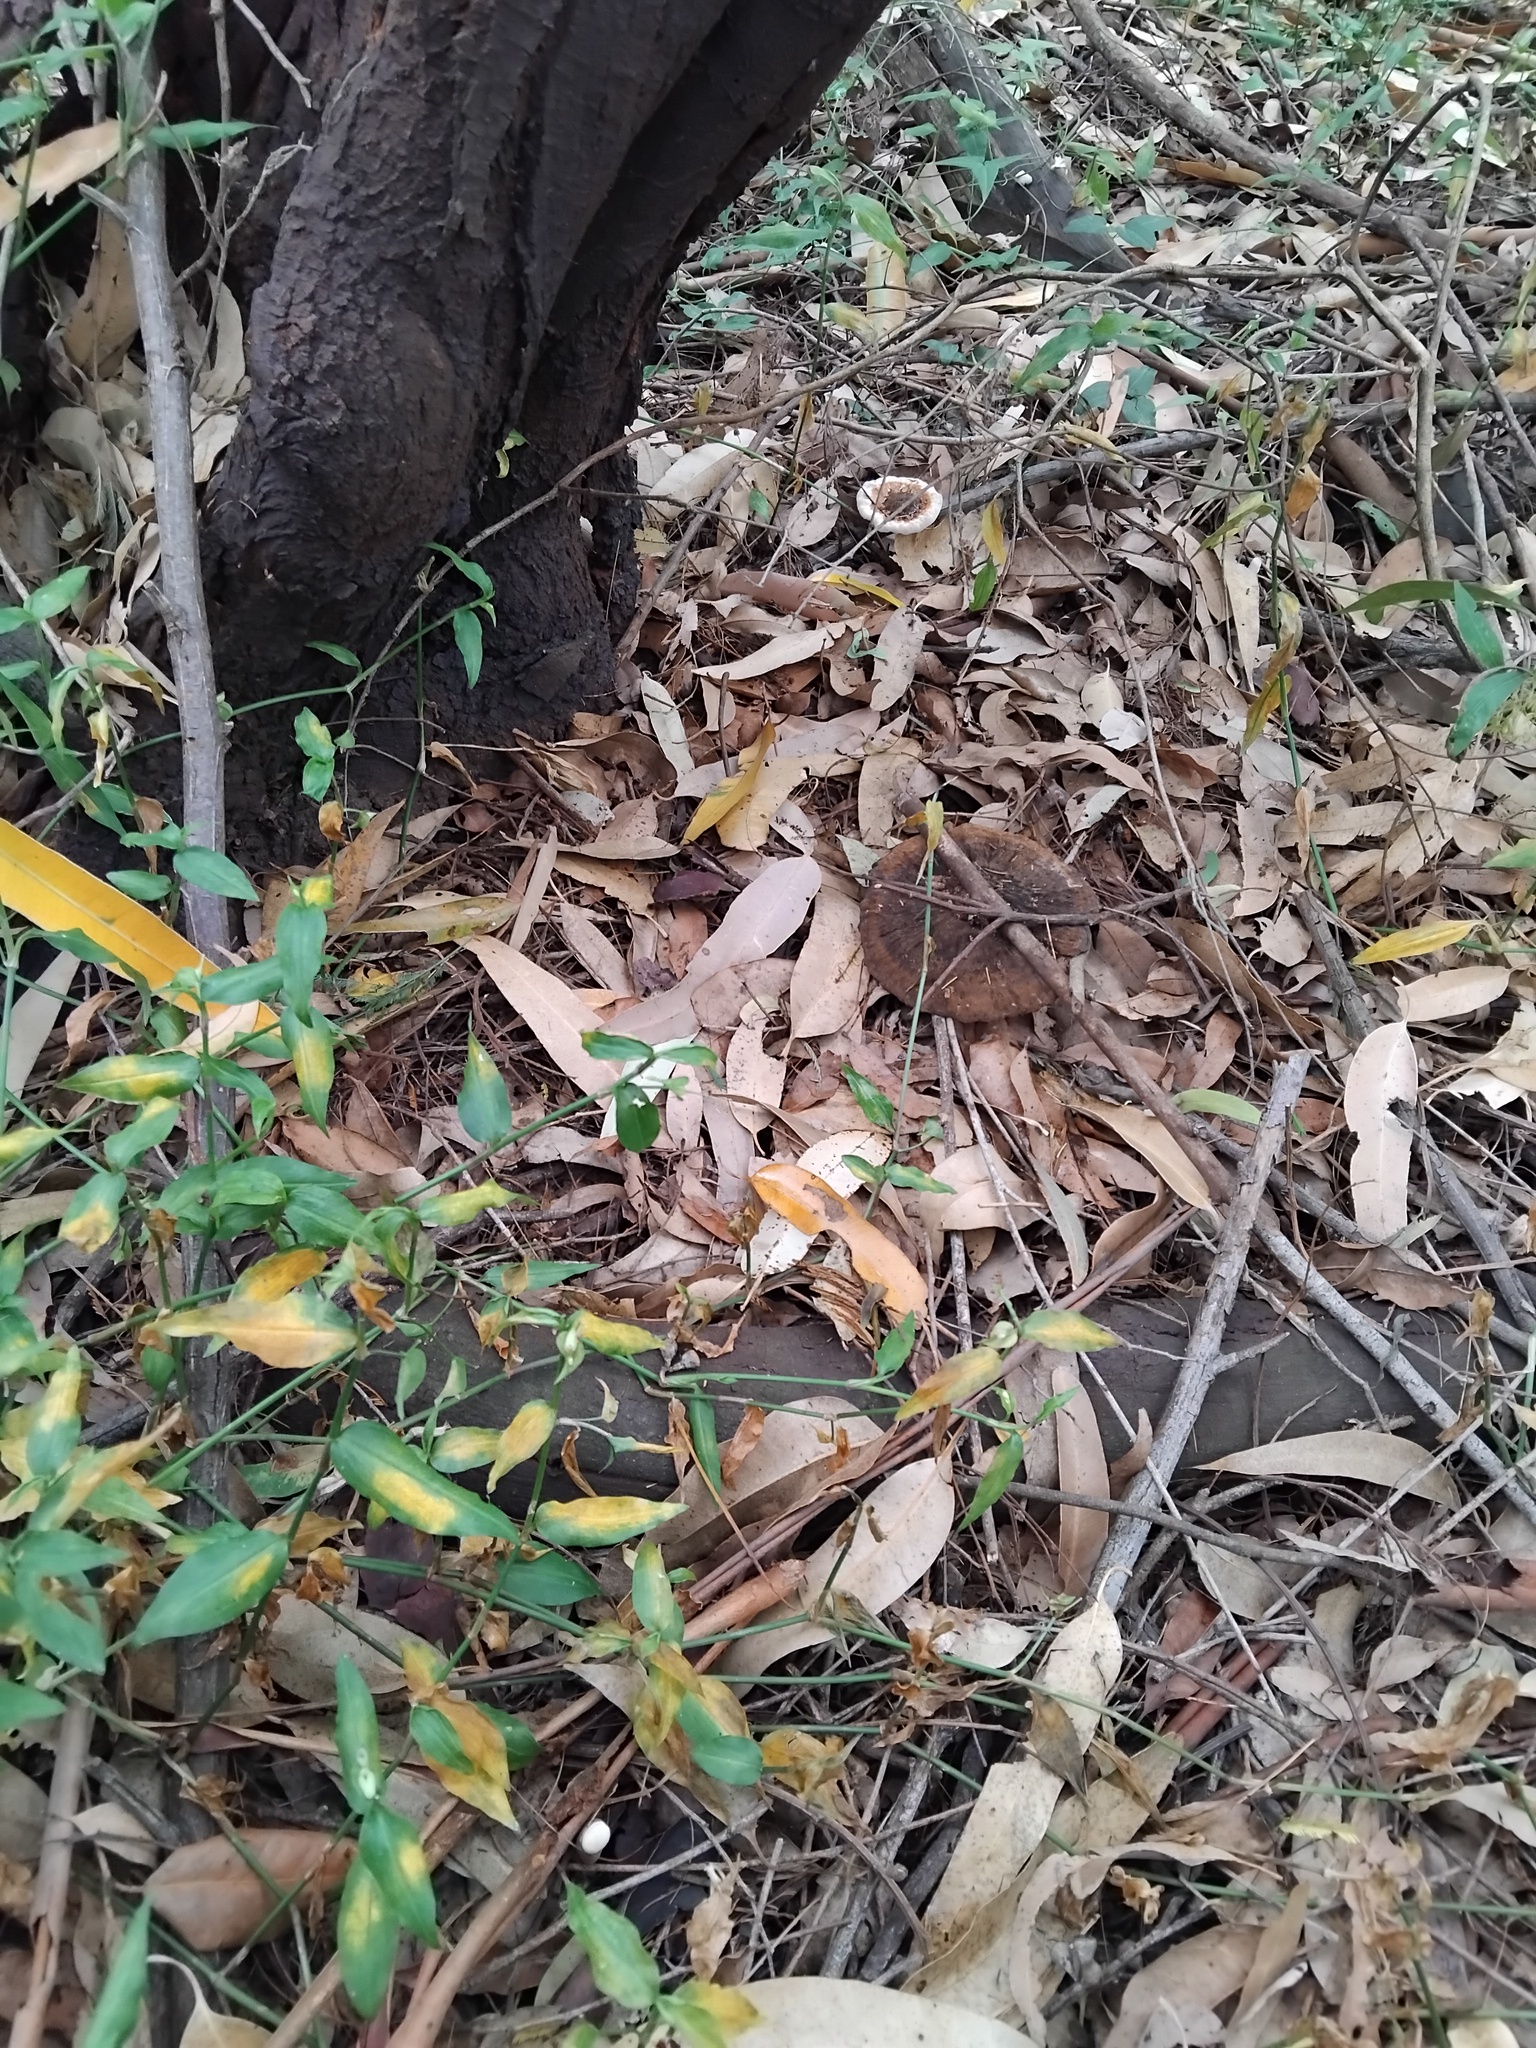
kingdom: Fungi
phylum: Basidiomycota
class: Agaricomycetes
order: Polyporales
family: Ganodermataceae
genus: Sanguinoderma
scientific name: Sanguinoderma rude
